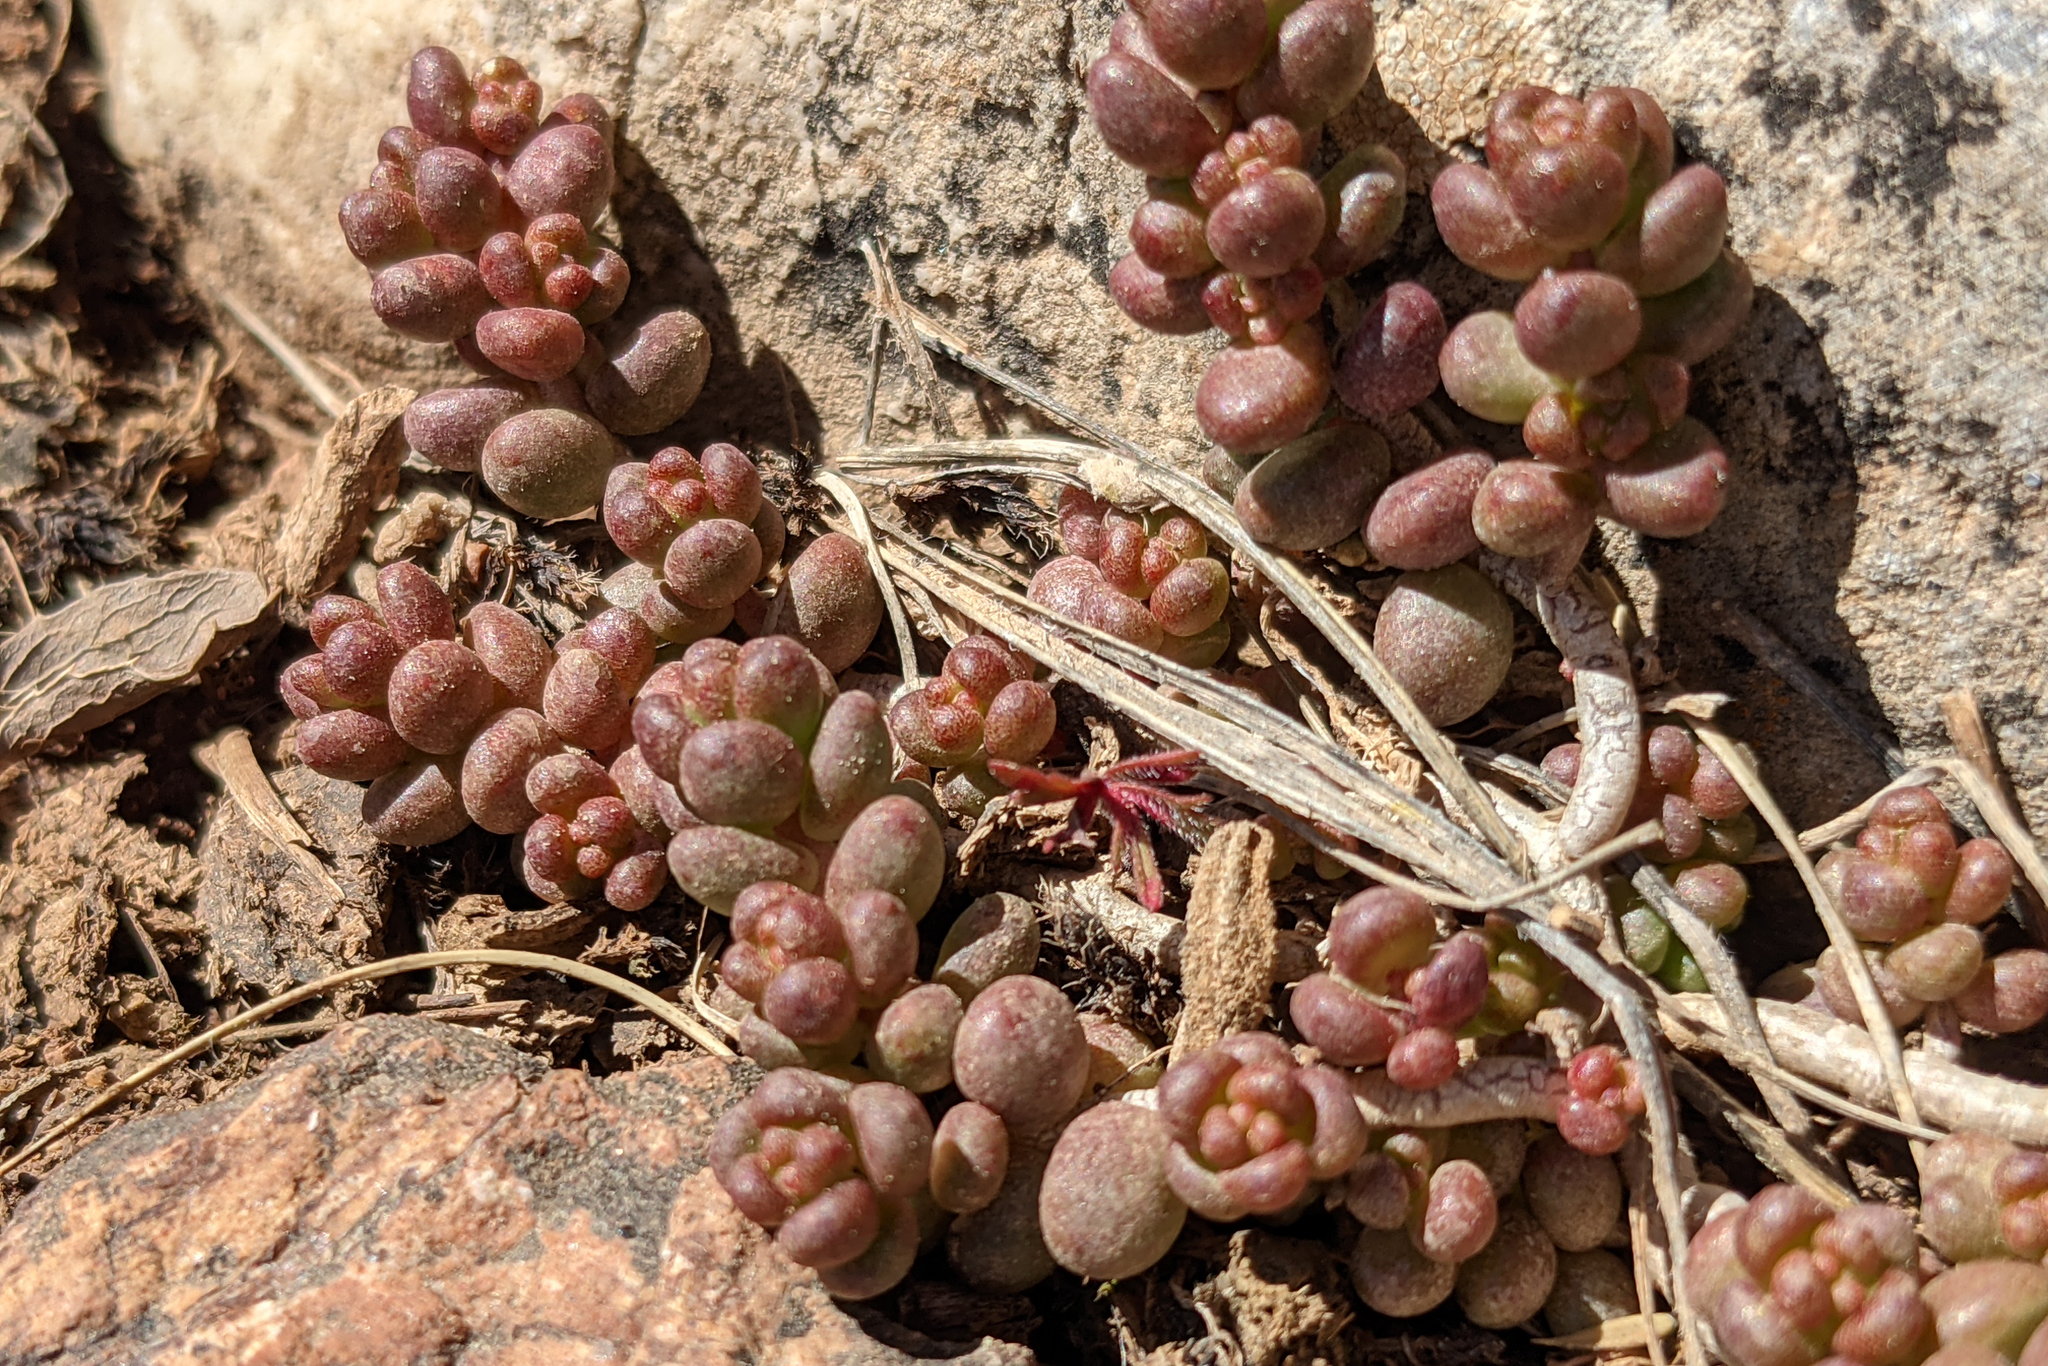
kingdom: Plantae
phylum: Tracheophyta
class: Magnoliopsida
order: Saxifragales
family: Crassulaceae
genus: Sedum
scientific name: Sedum album
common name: White stonecrop
